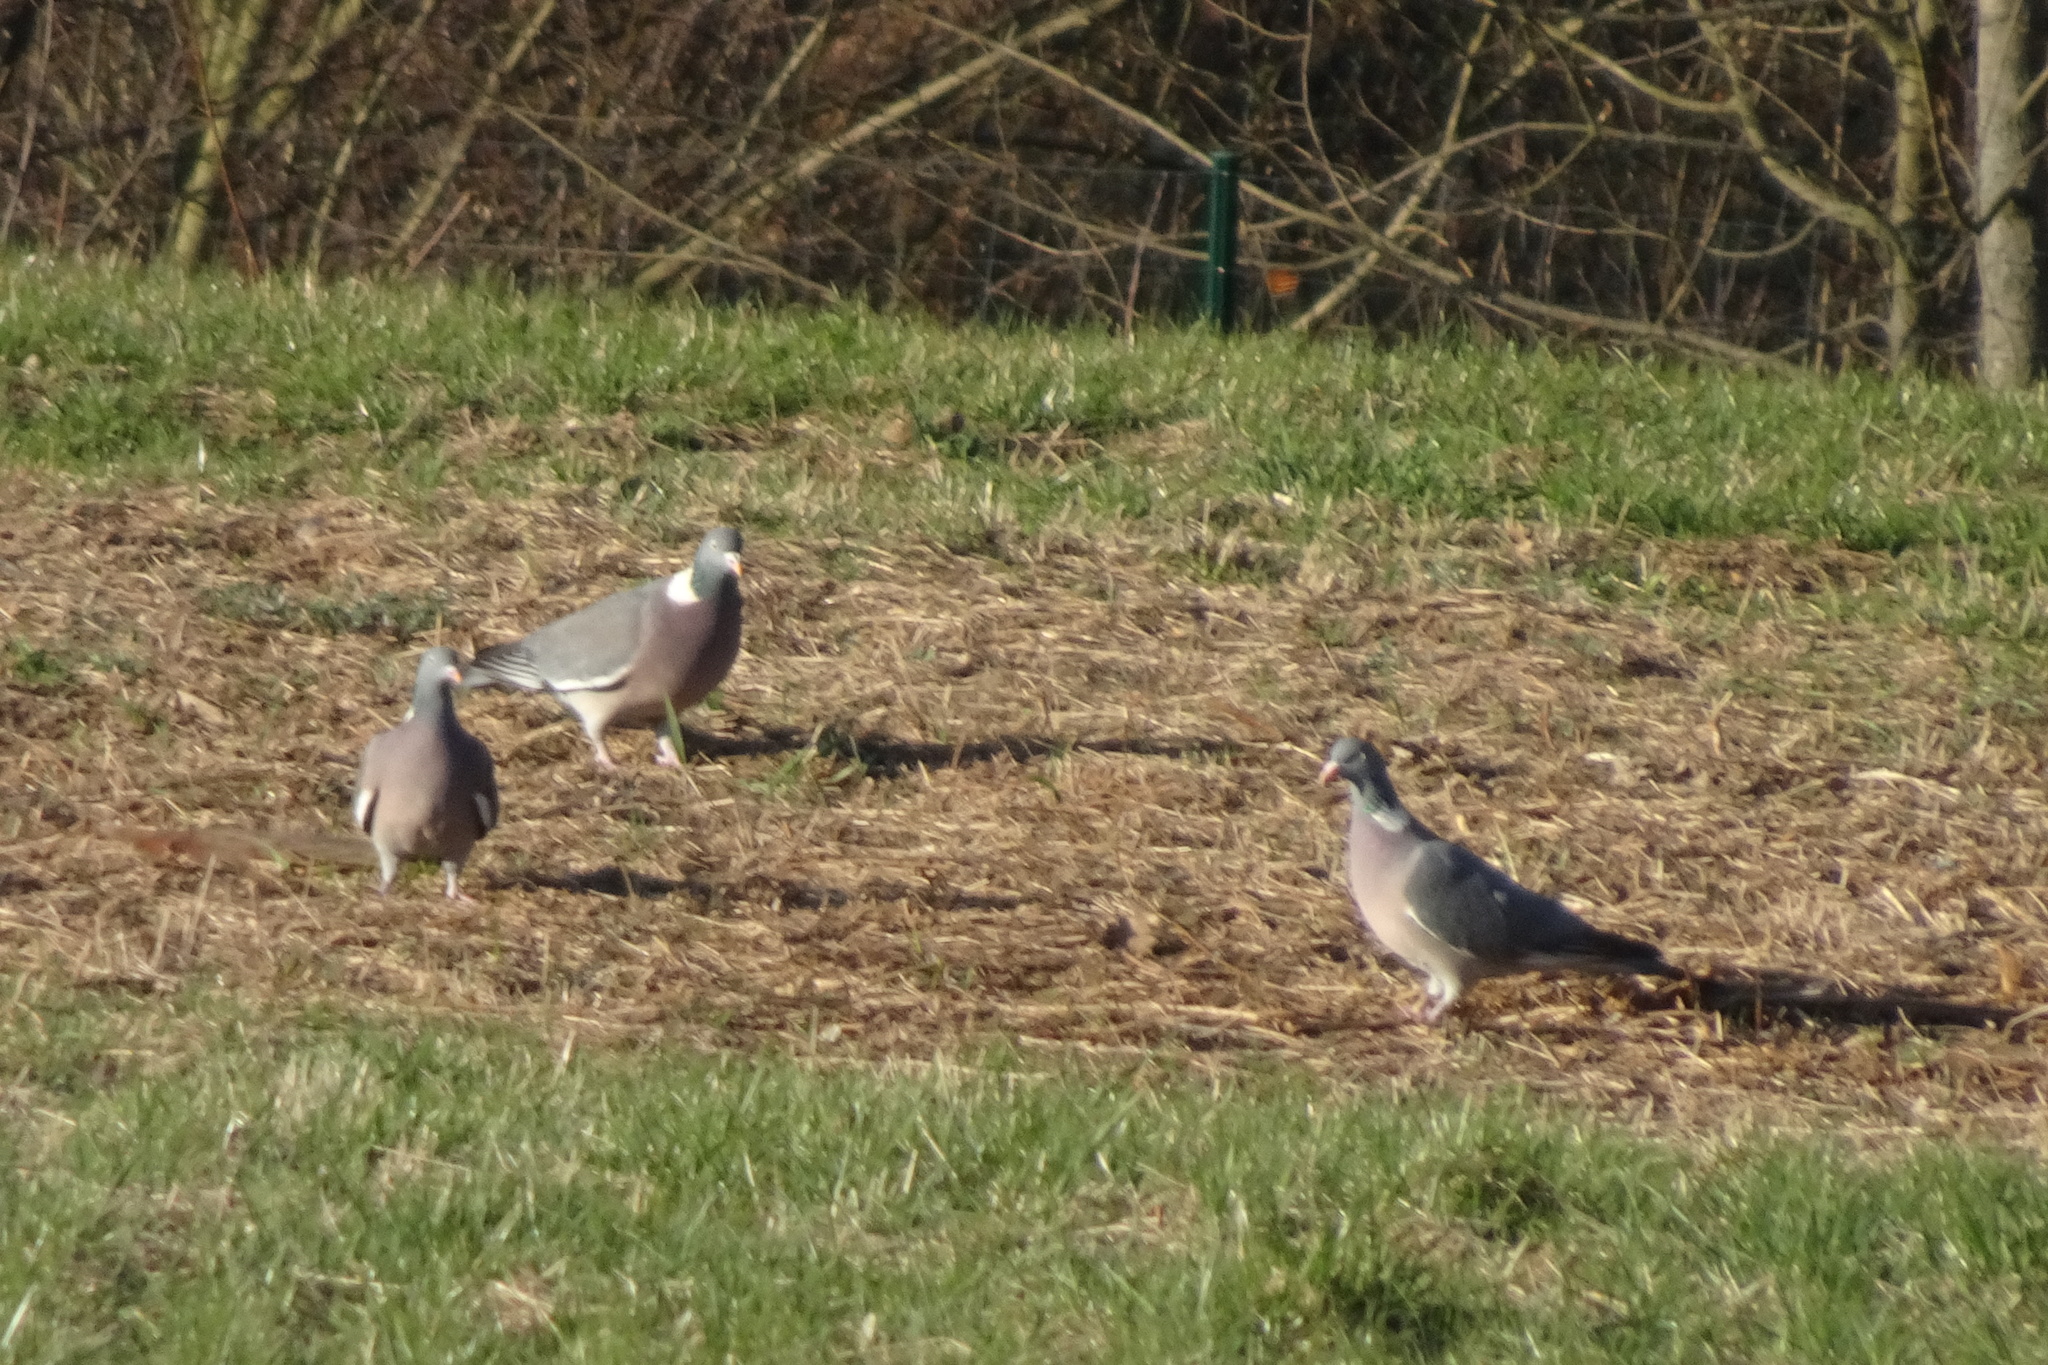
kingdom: Animalia
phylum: Chordata
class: Aves
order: Columbiformes
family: Columbidae
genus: Columba
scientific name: Columba palumbus
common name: Common wood pigeon
